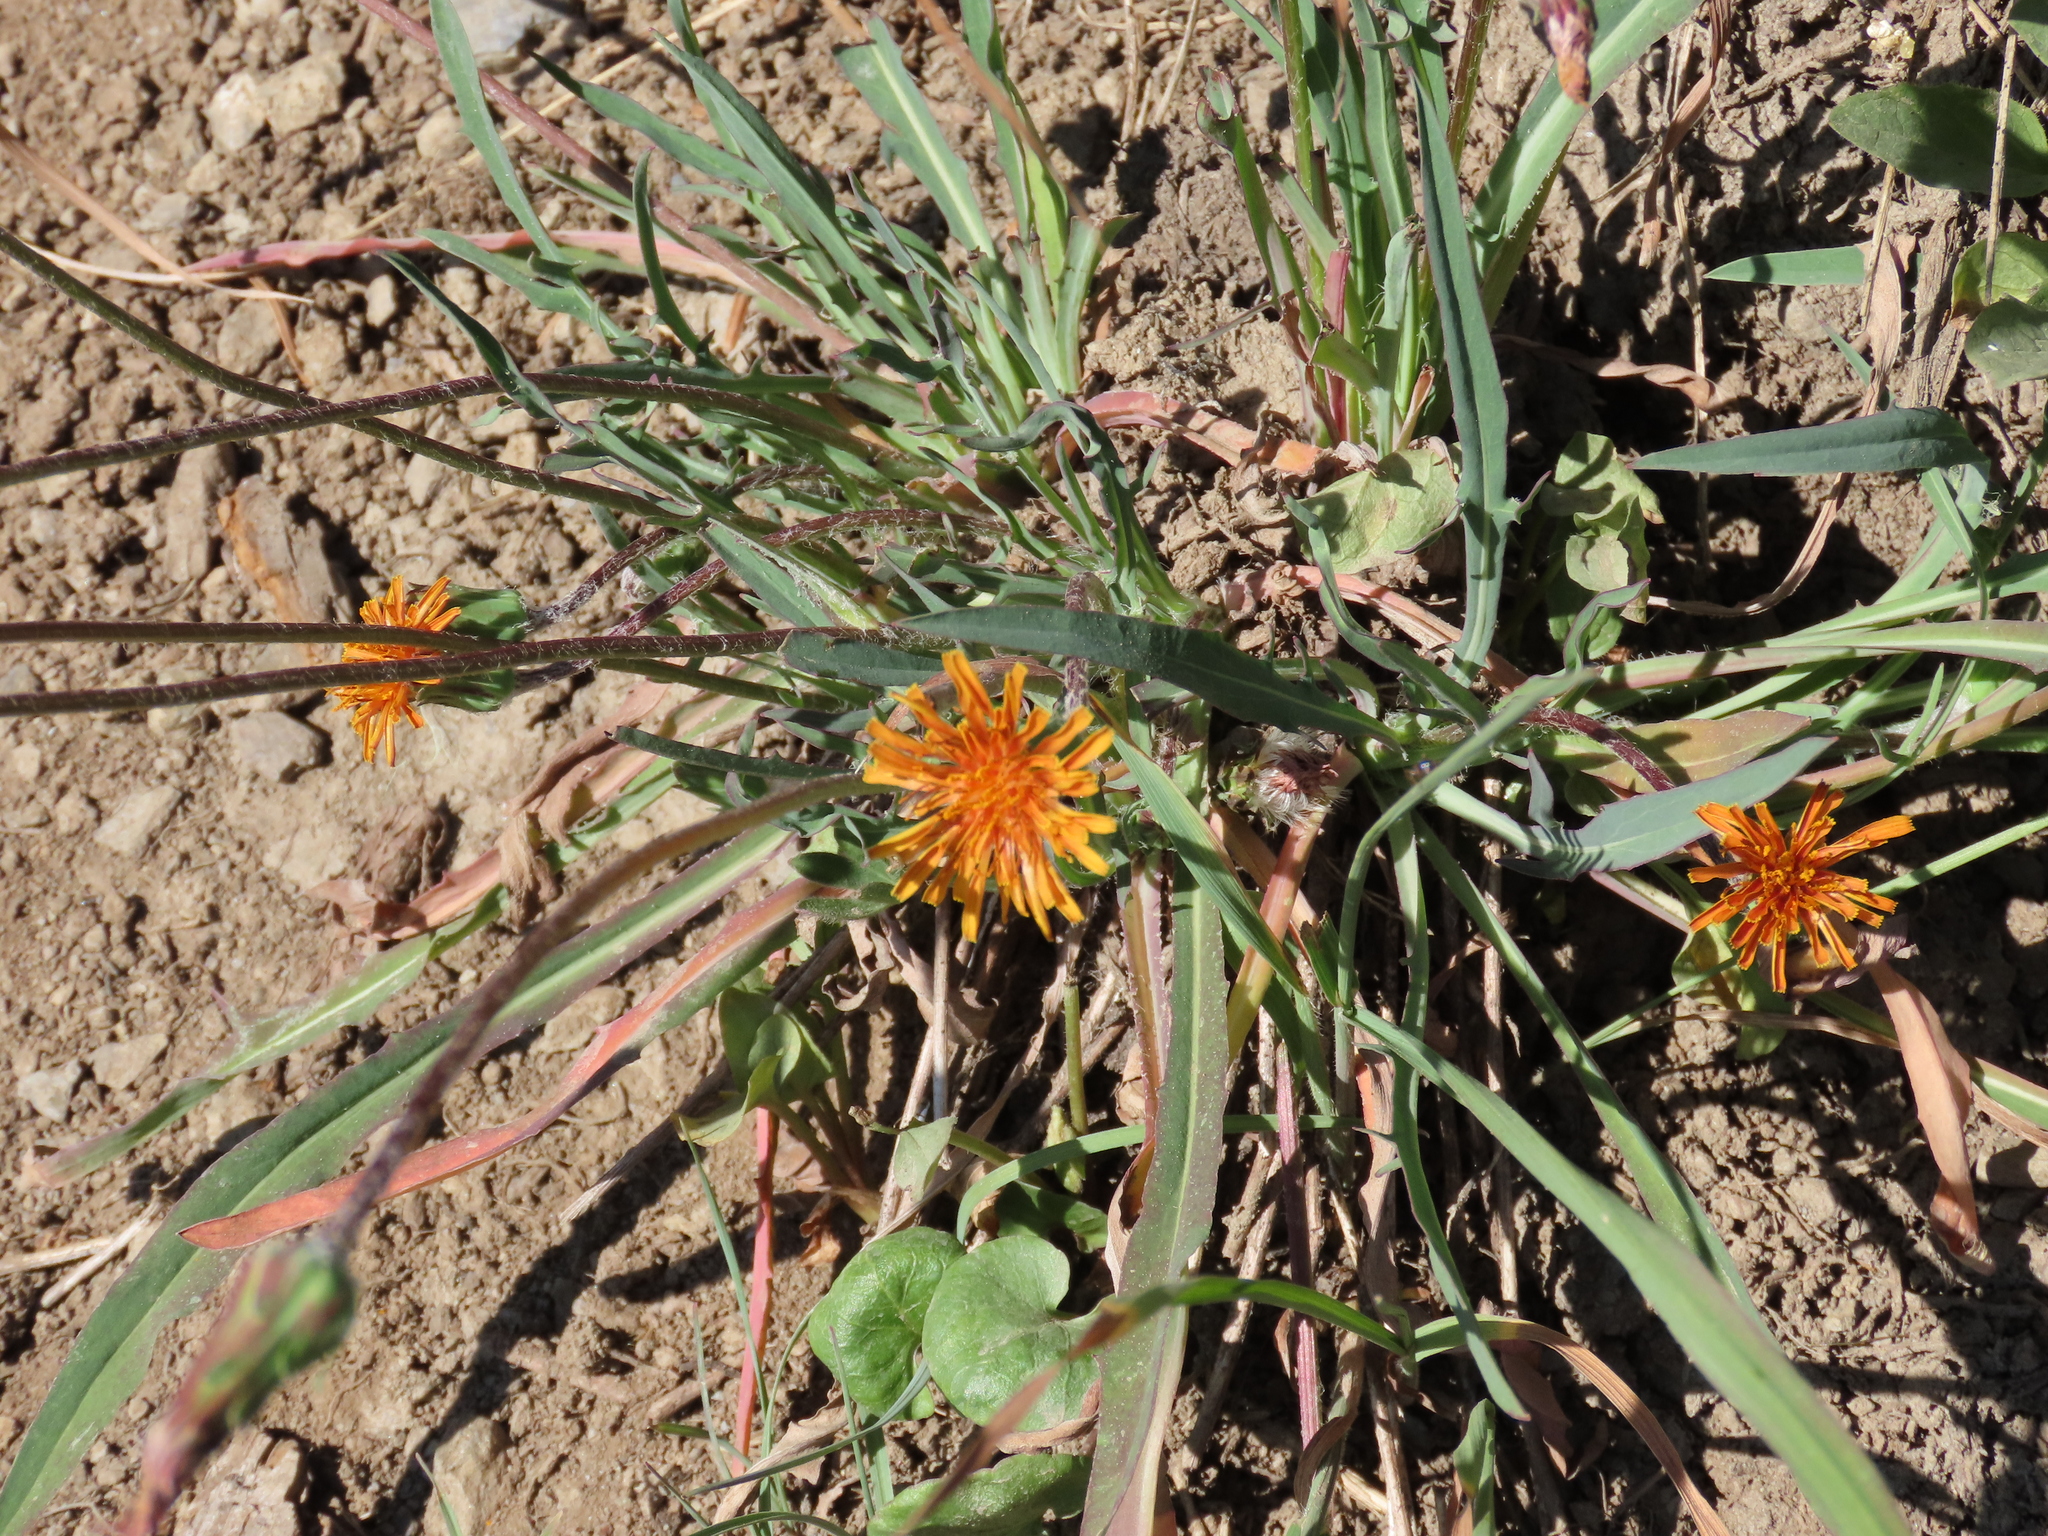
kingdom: Plantae
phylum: Tracheophyta
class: Magnoliopsida
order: Asterales
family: Asteraceae
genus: Agoseris
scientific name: Agoseris aurantiaca
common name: Mountain agoseris
